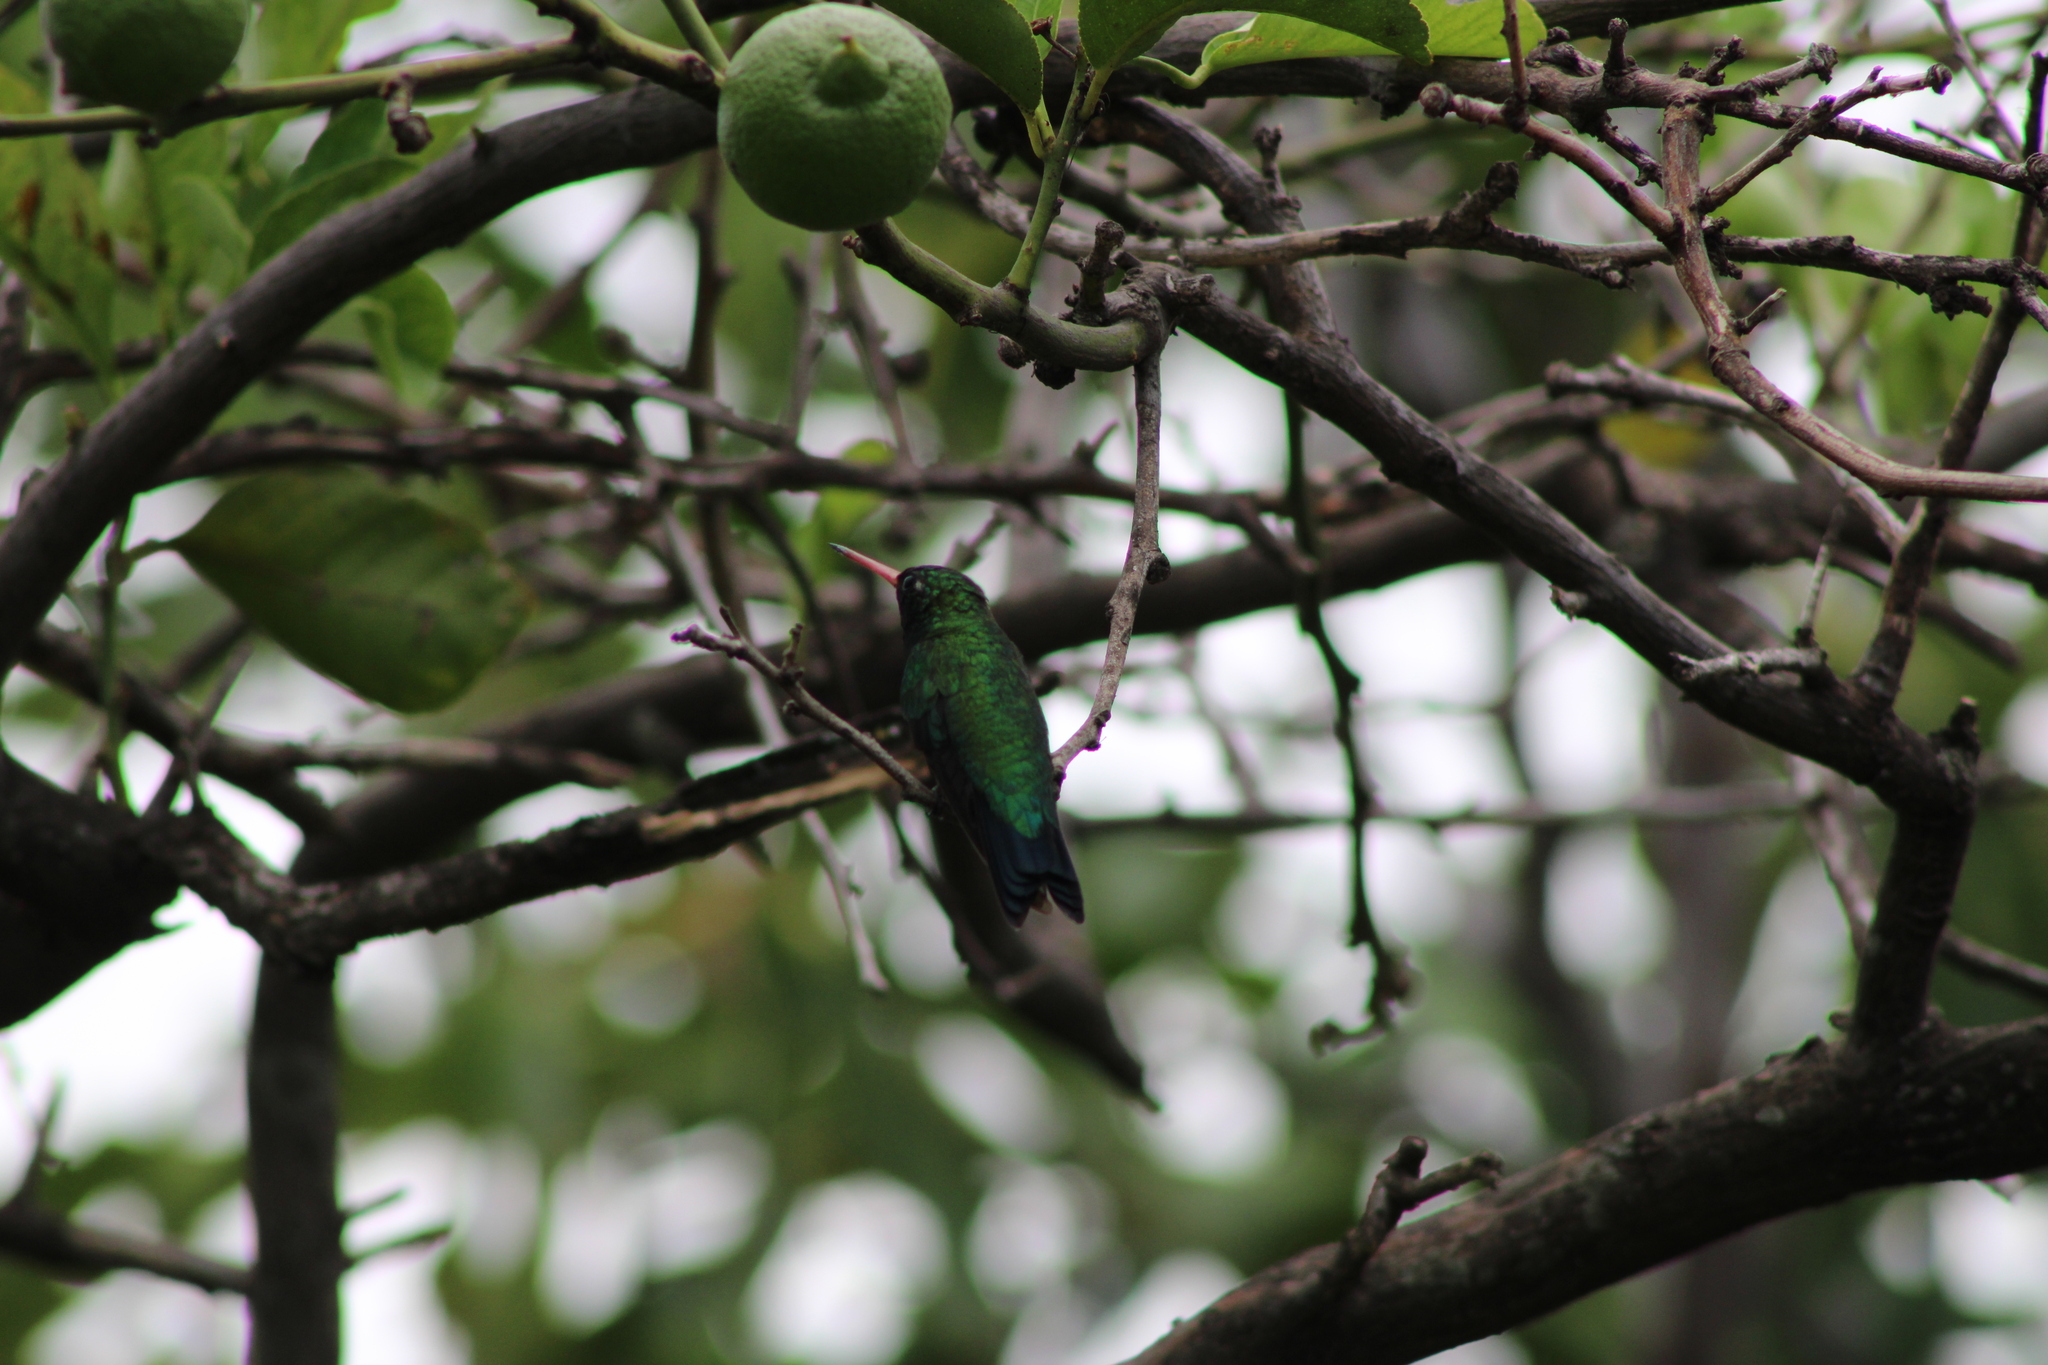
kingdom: Animalia
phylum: Chordata
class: Aves
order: Apodiformes
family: Trochilidae
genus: Chlorostilbon
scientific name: Chlorostilbon lucidus
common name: Glittering-bellied emerald
